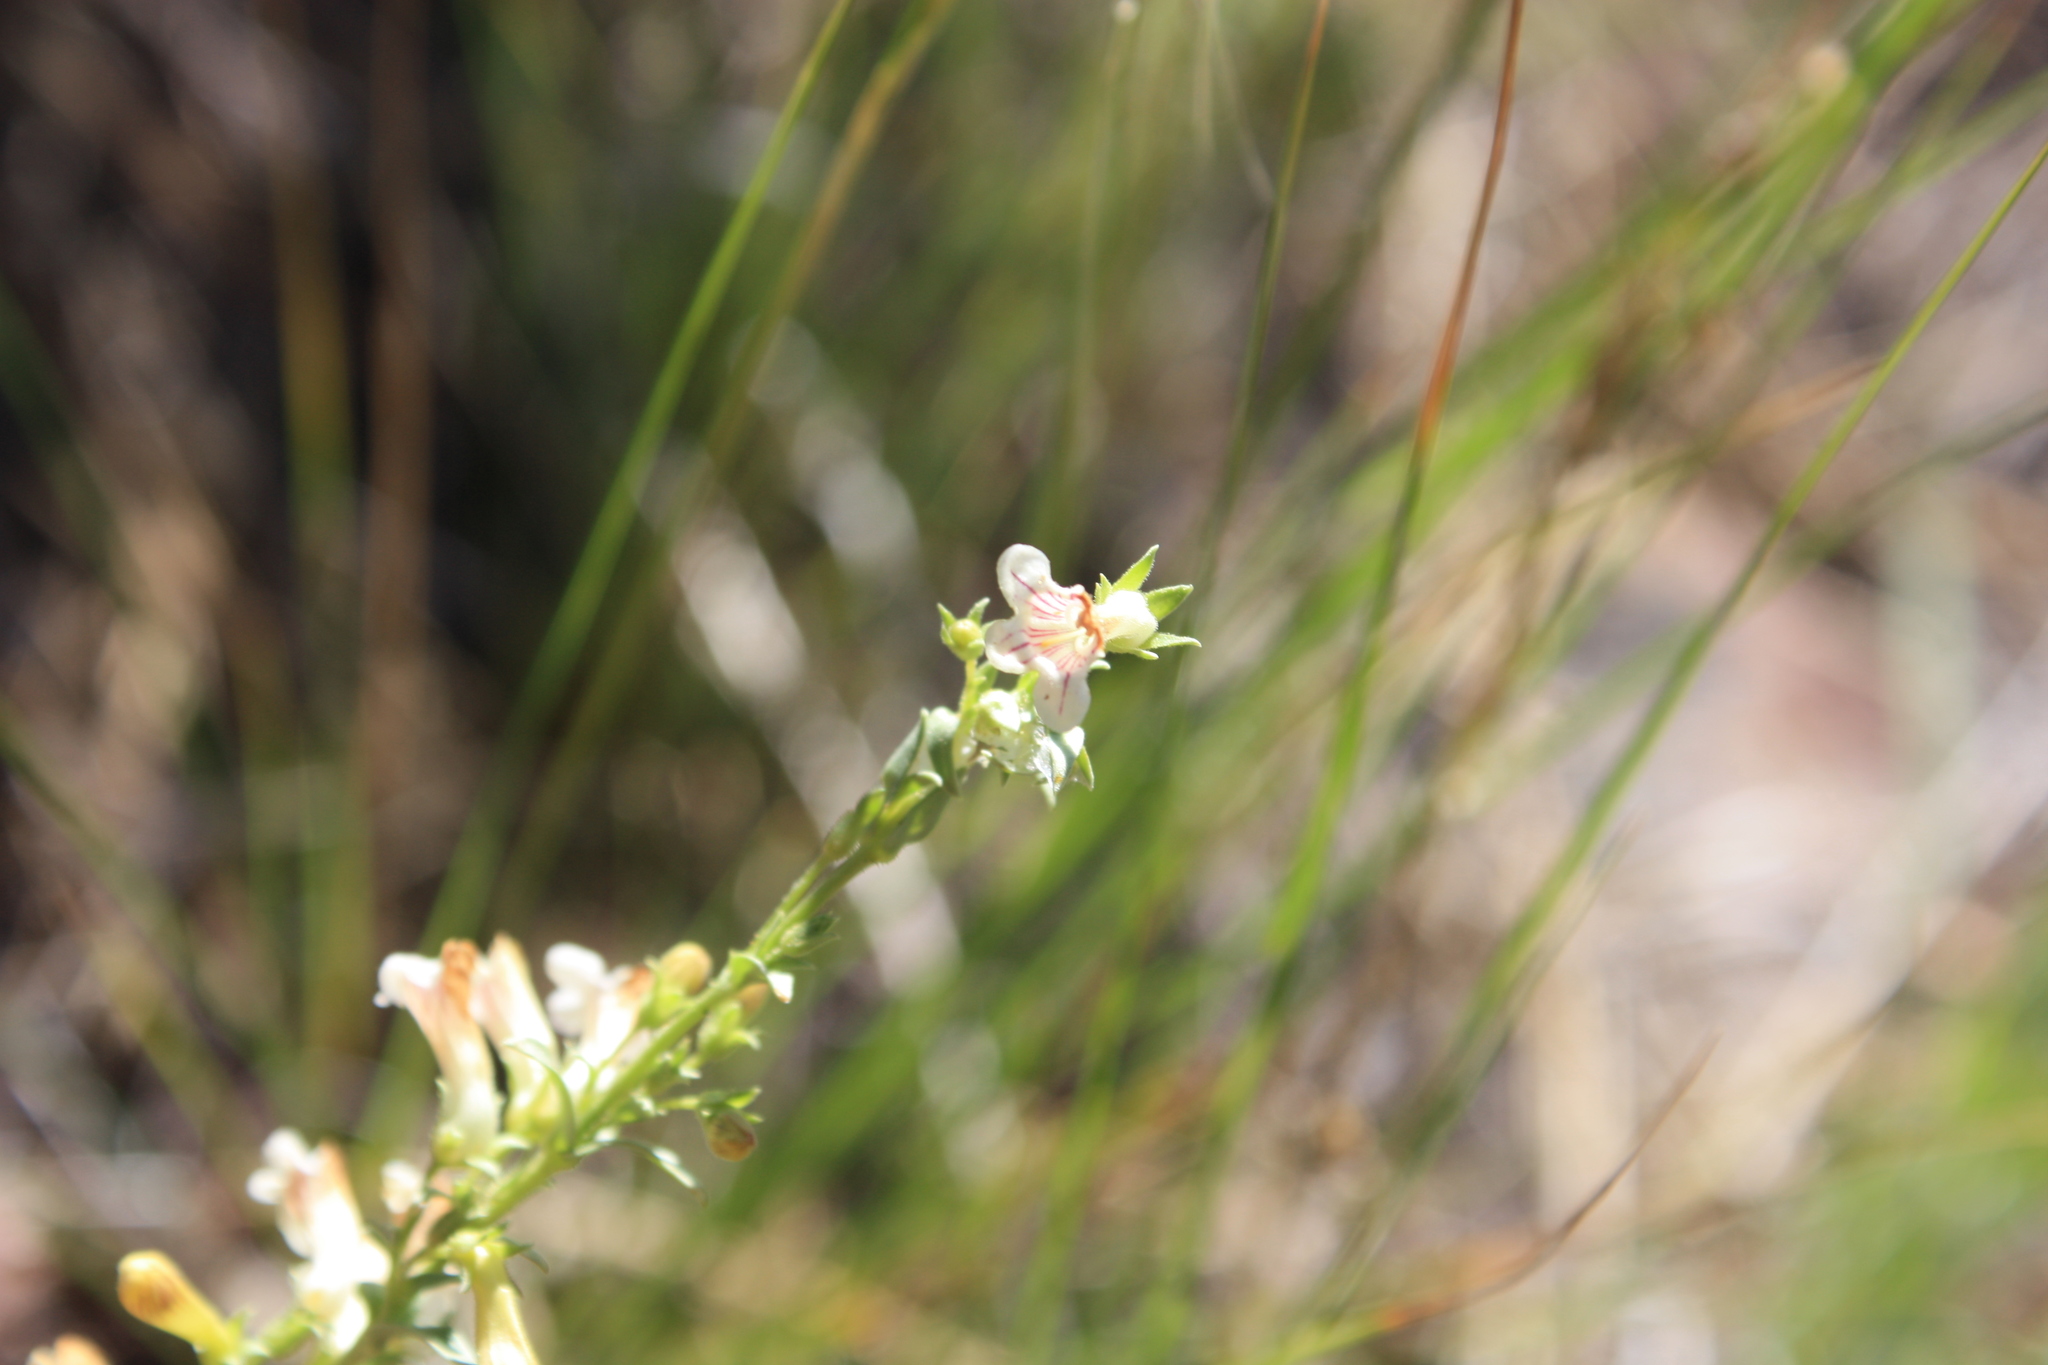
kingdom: Plantae
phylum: Tracheophyta
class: Magnoliopsida
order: Lamiales
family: Plantaginaceae
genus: Penstemon
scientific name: Penstemon deustus
